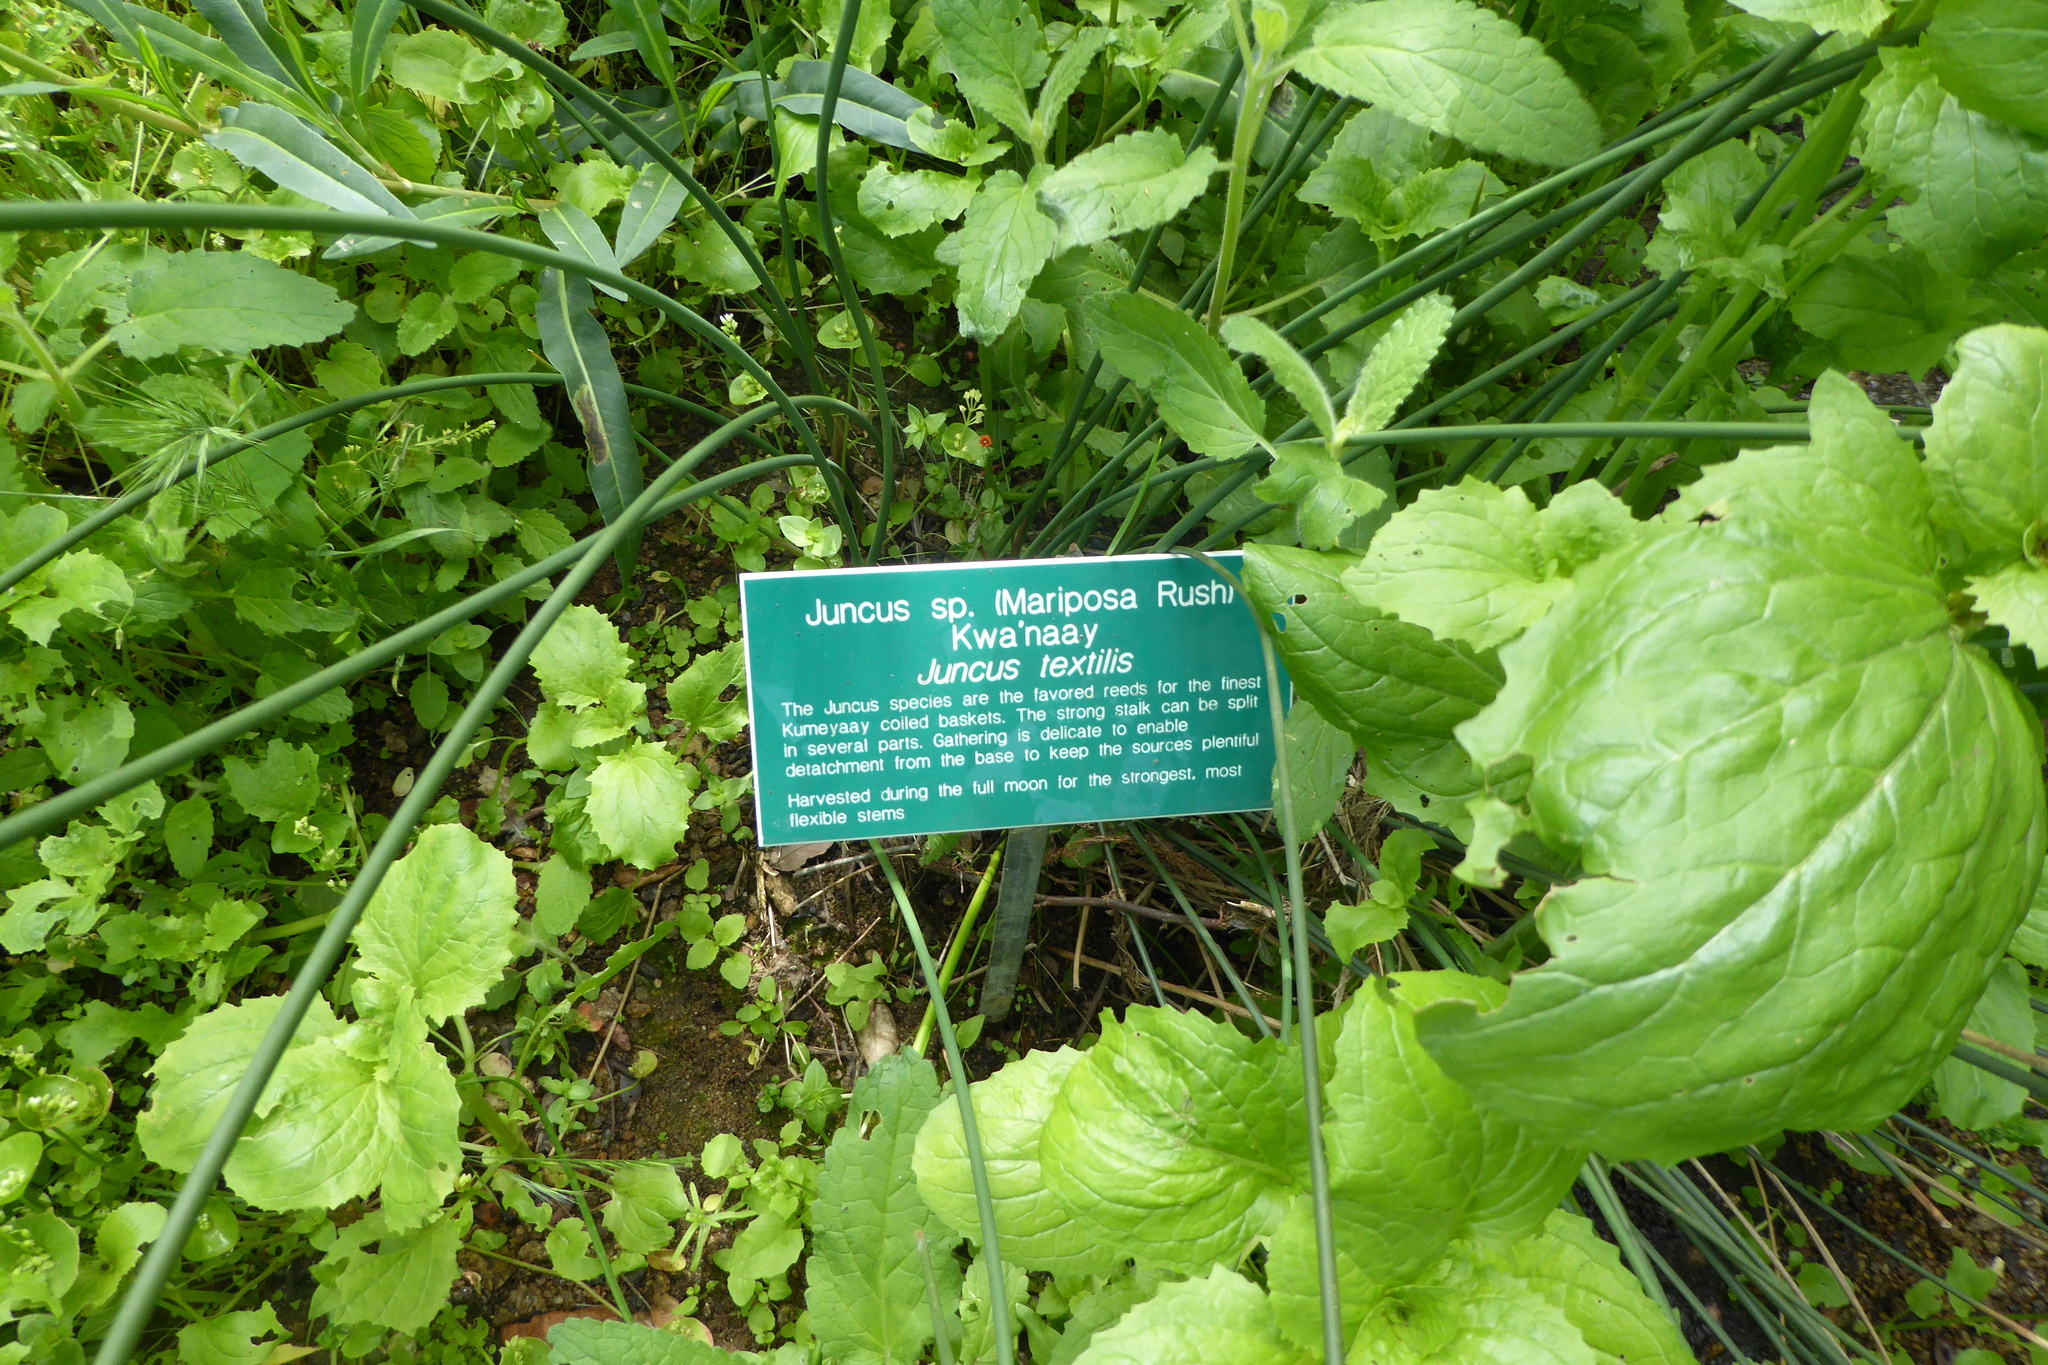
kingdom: Plantae
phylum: Tracheophyta
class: Liliopsida
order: Poales
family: Juncaceae
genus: Juncus
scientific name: Juncus textilis
